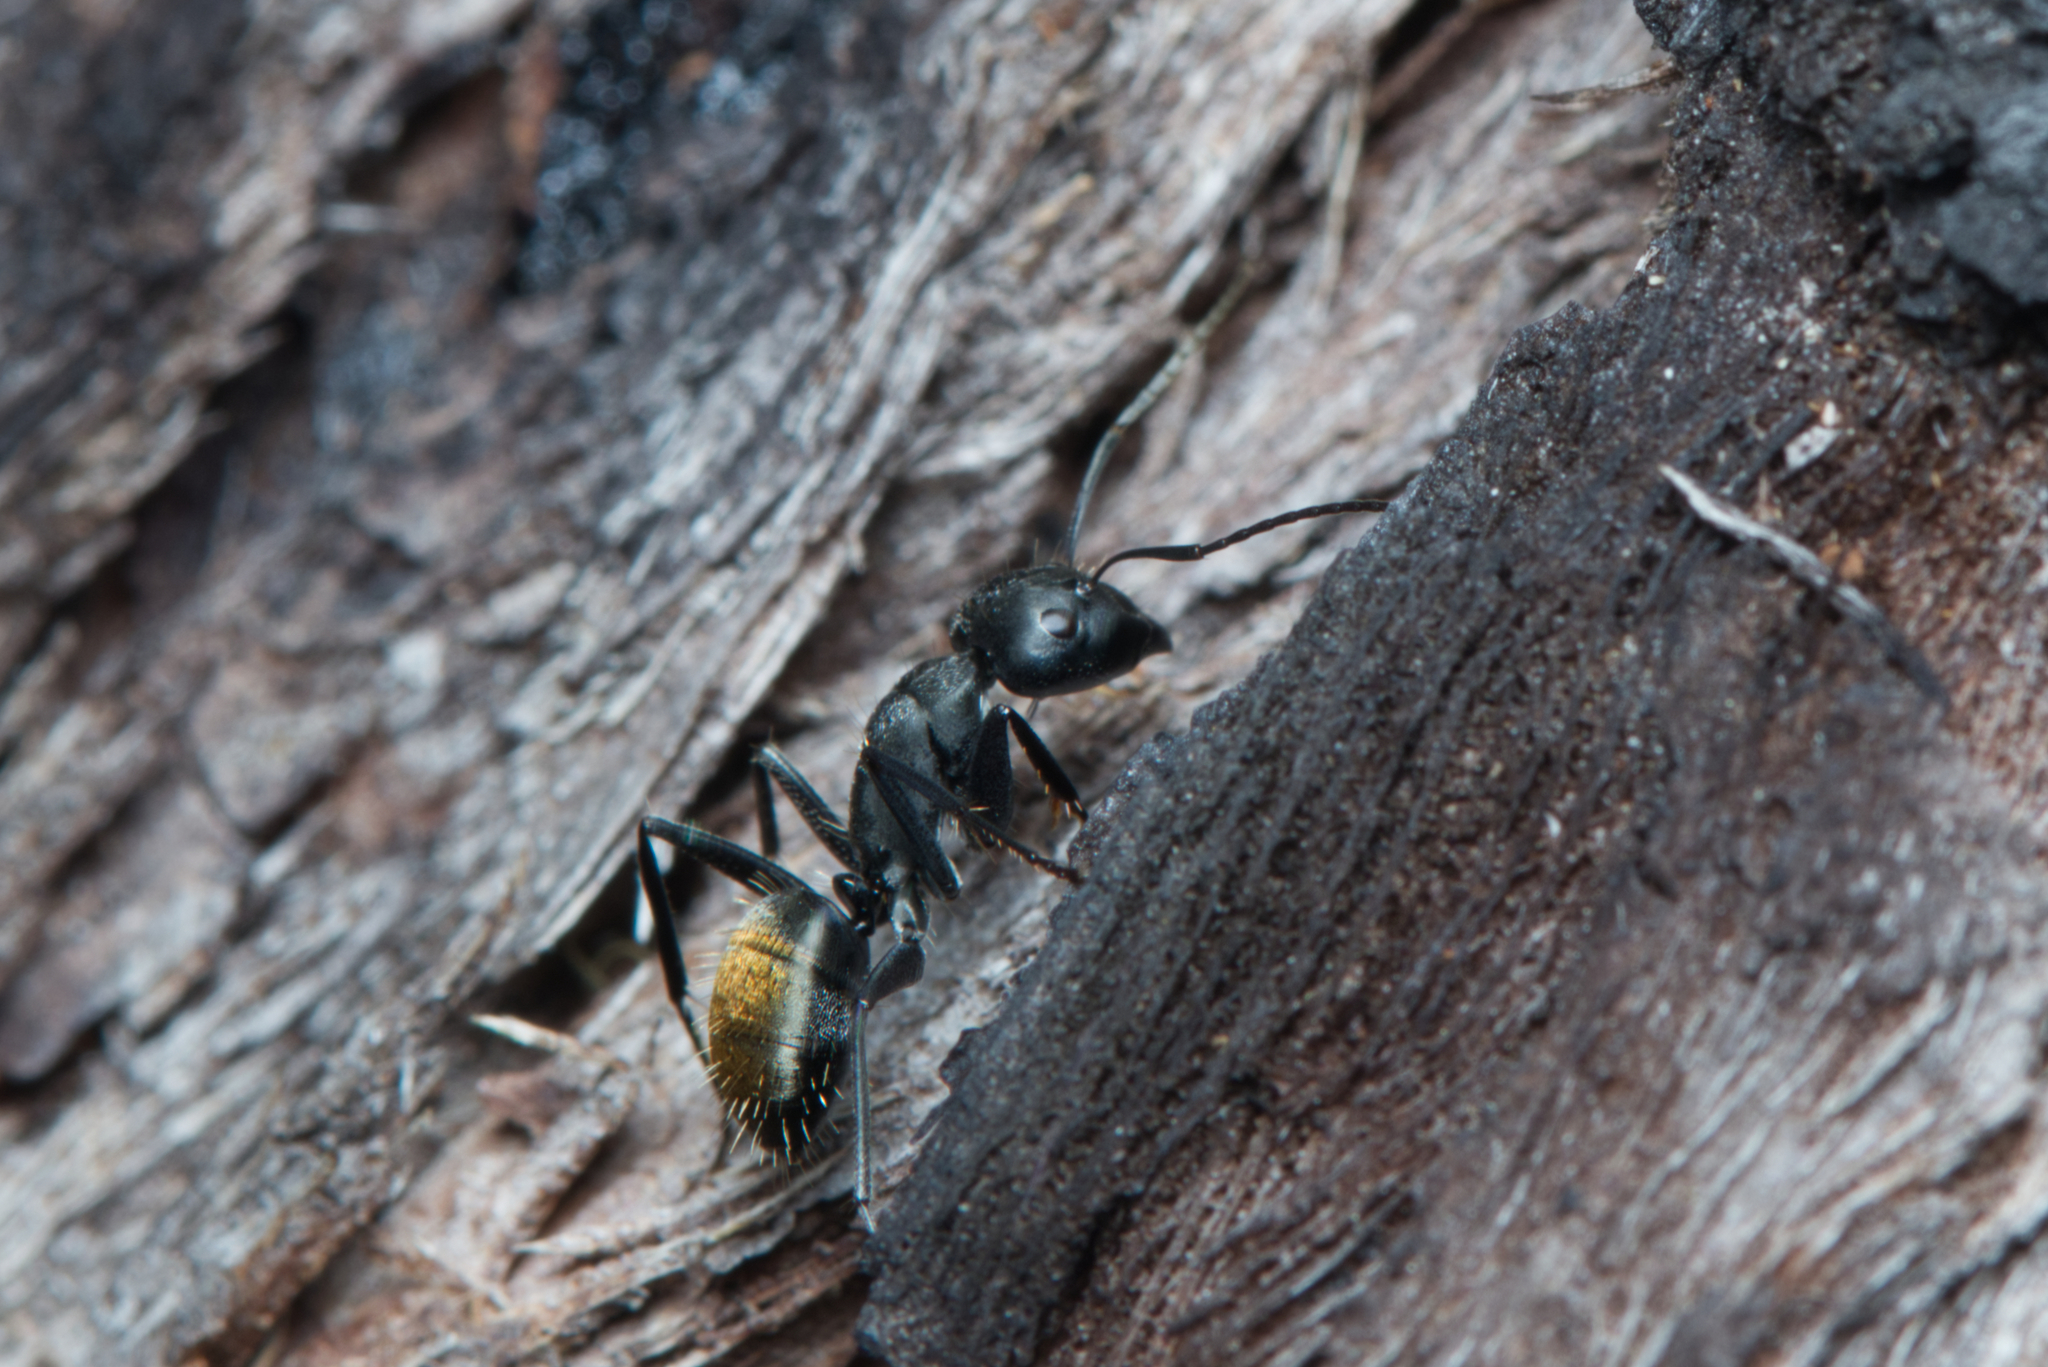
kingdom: Animalia
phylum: Arthropoda
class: Insecta
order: Hymenoptera
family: Formicidae
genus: Camponotus
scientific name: Camponotus aeneopilosus
